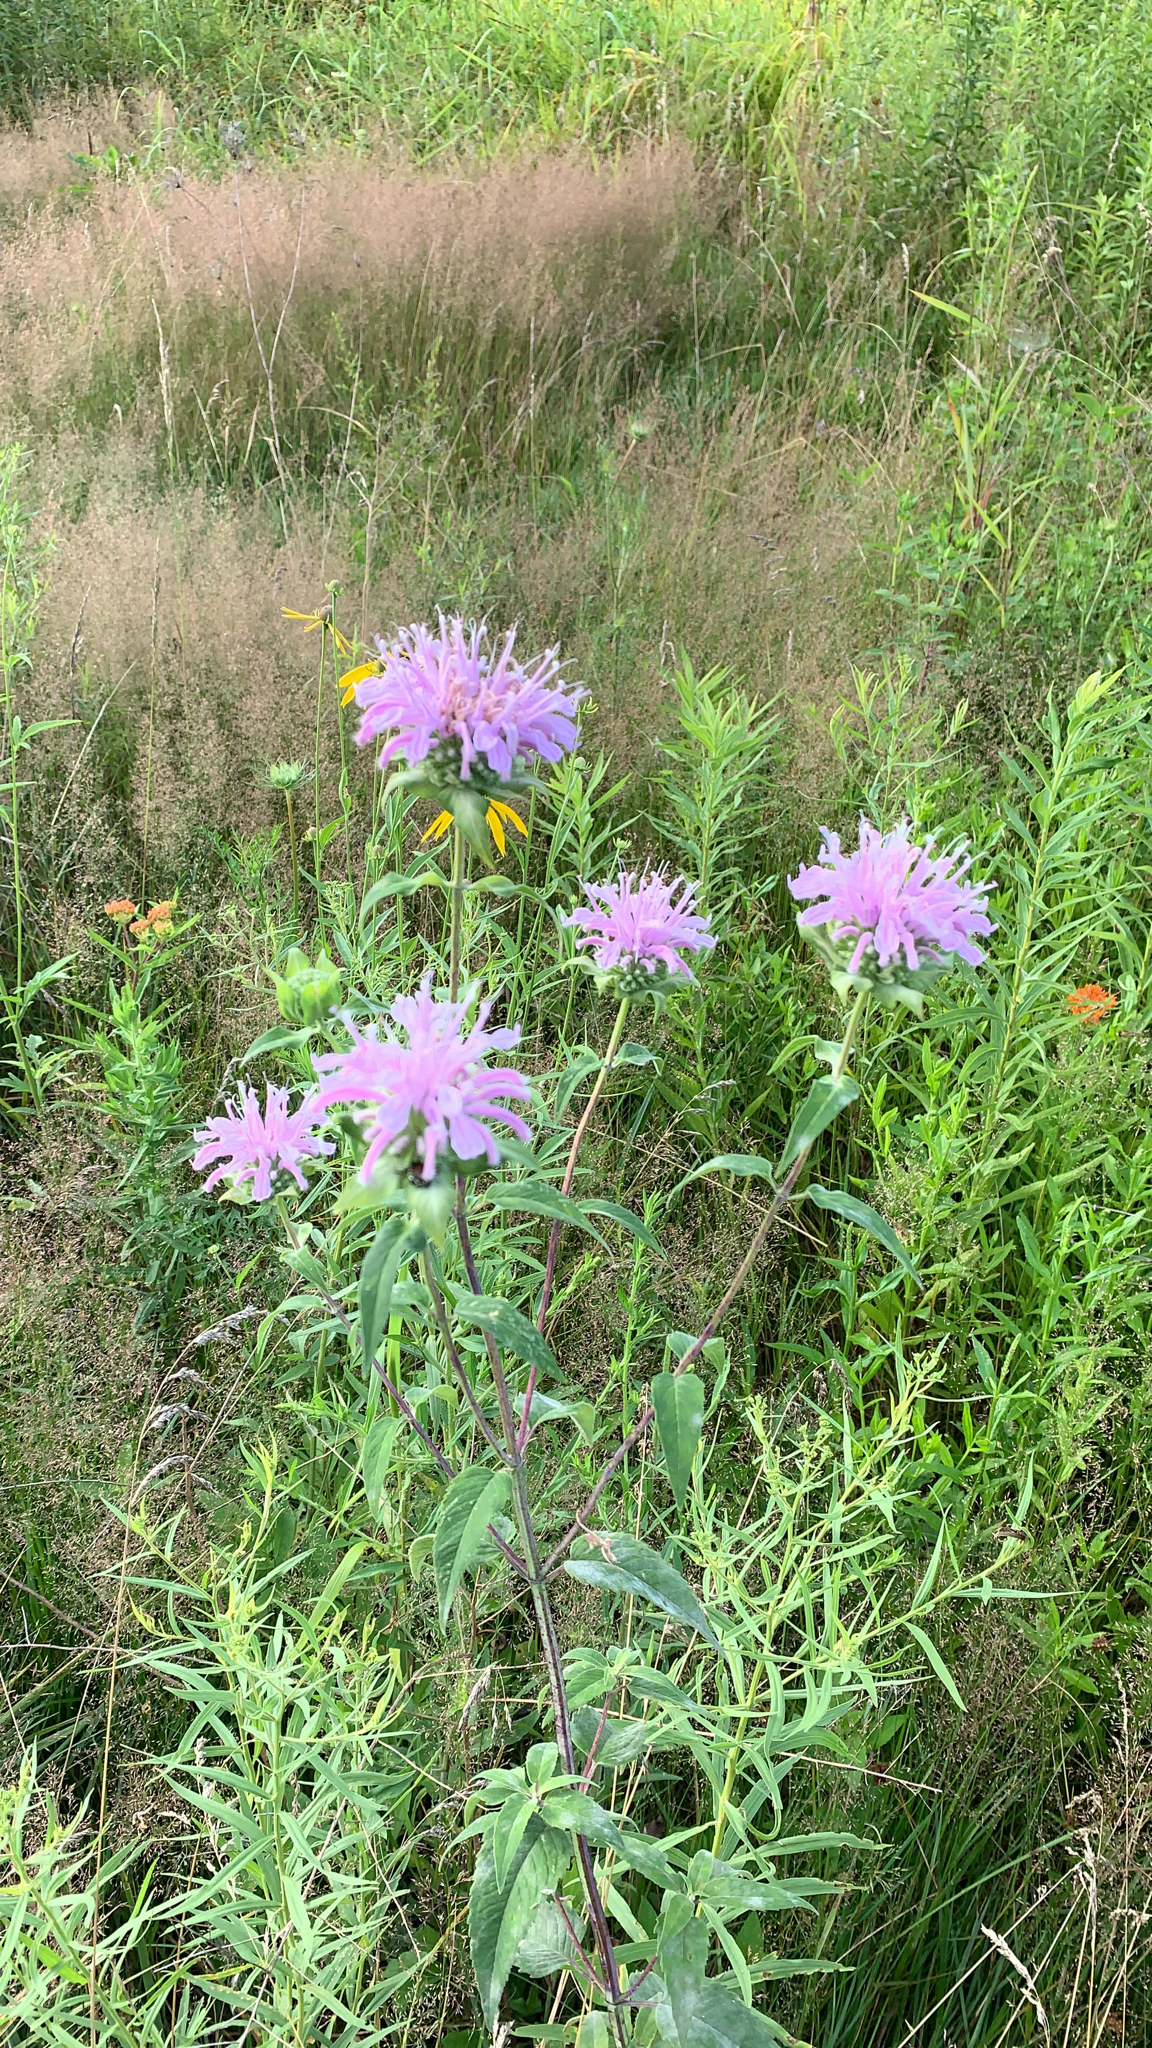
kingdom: Plantae
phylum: Tracheophyta
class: Magnoliopsida
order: Lamiales
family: Lamiaceae
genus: Monarda
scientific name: Monarda fistulosa
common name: Purple beebalm
